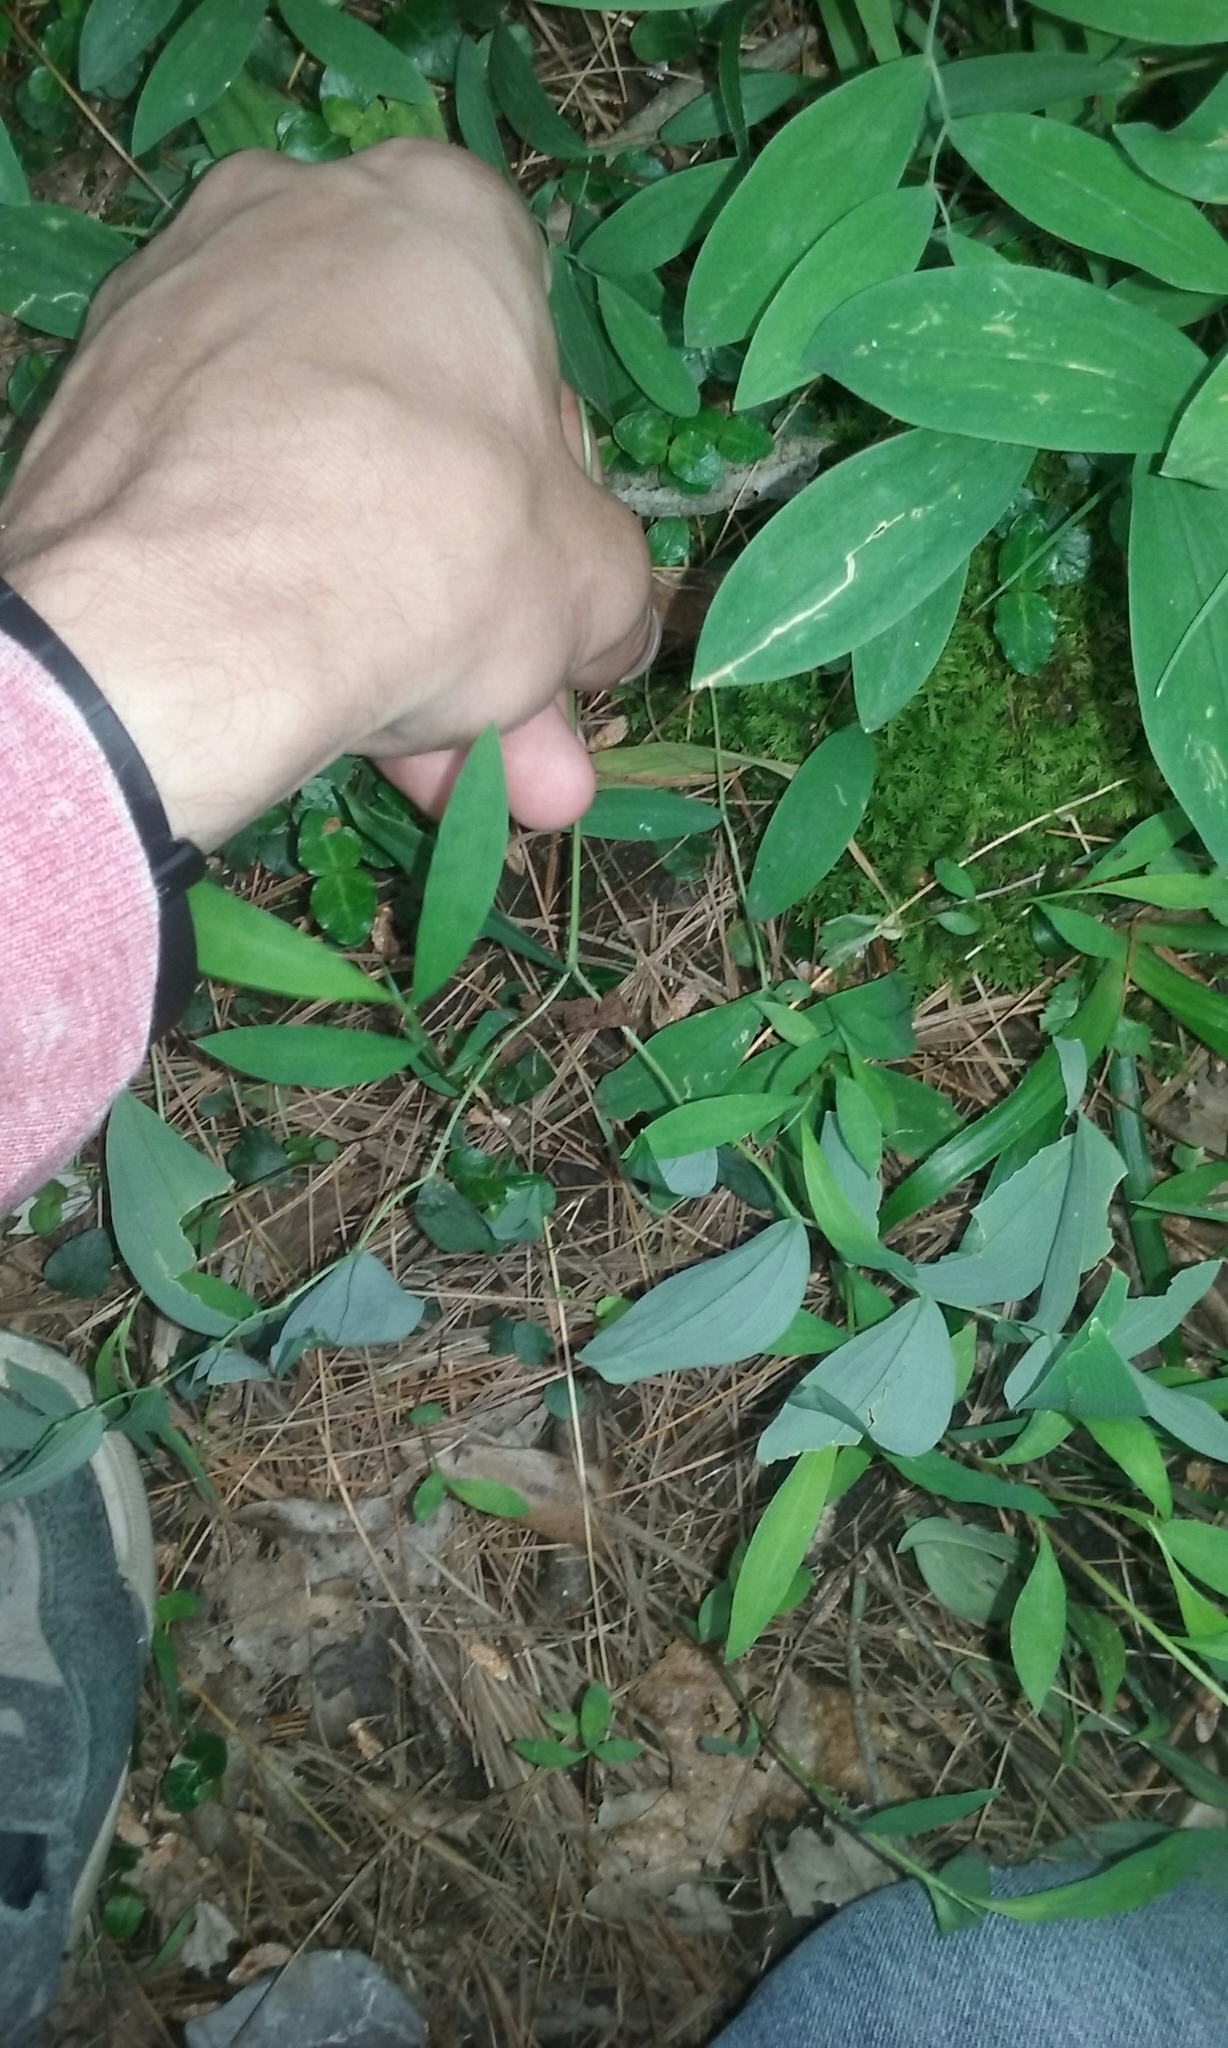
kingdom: Plantae
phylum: Tracheophyta
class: Liliopsida
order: Liliales
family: Colchicaceae
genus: Uvularia
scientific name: Uvularia sessilifolia
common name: Straw-lily
